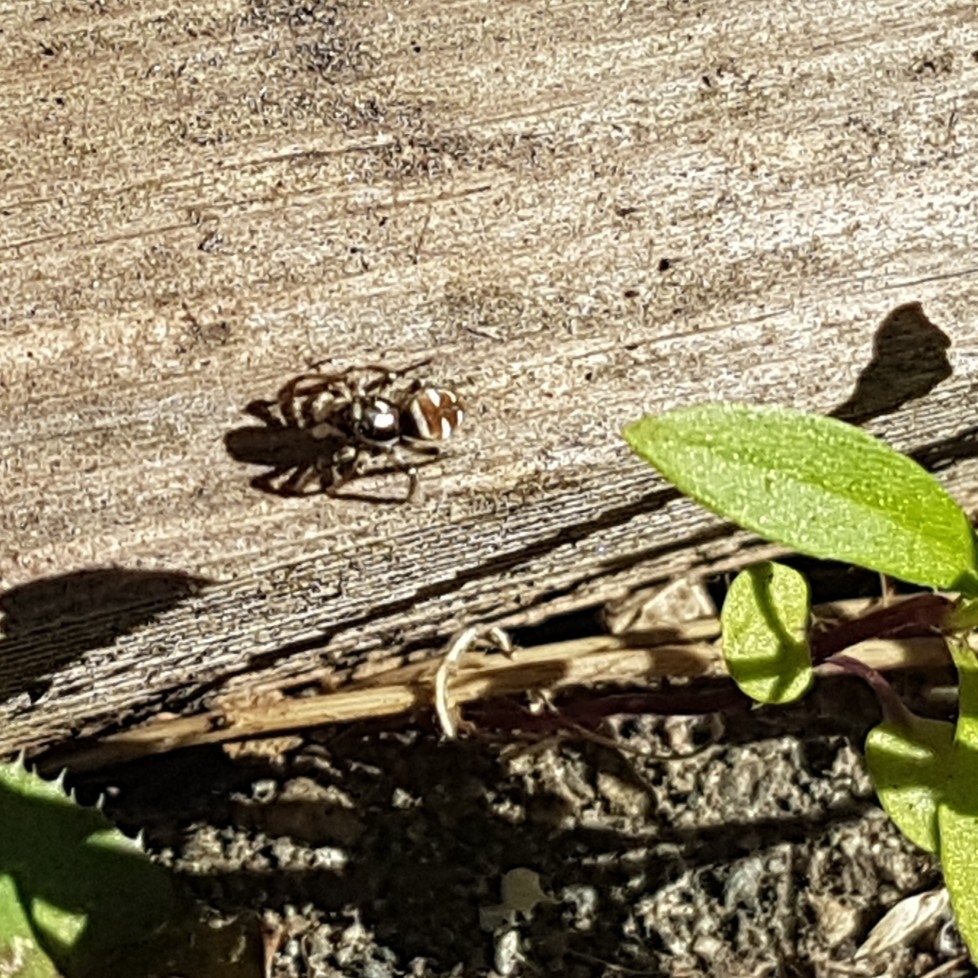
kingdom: Animalia
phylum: Arthropoda
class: Arachnida
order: Araneae
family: Salticidae
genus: Salticus
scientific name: Salticus scenicus
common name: Zebra jumper
